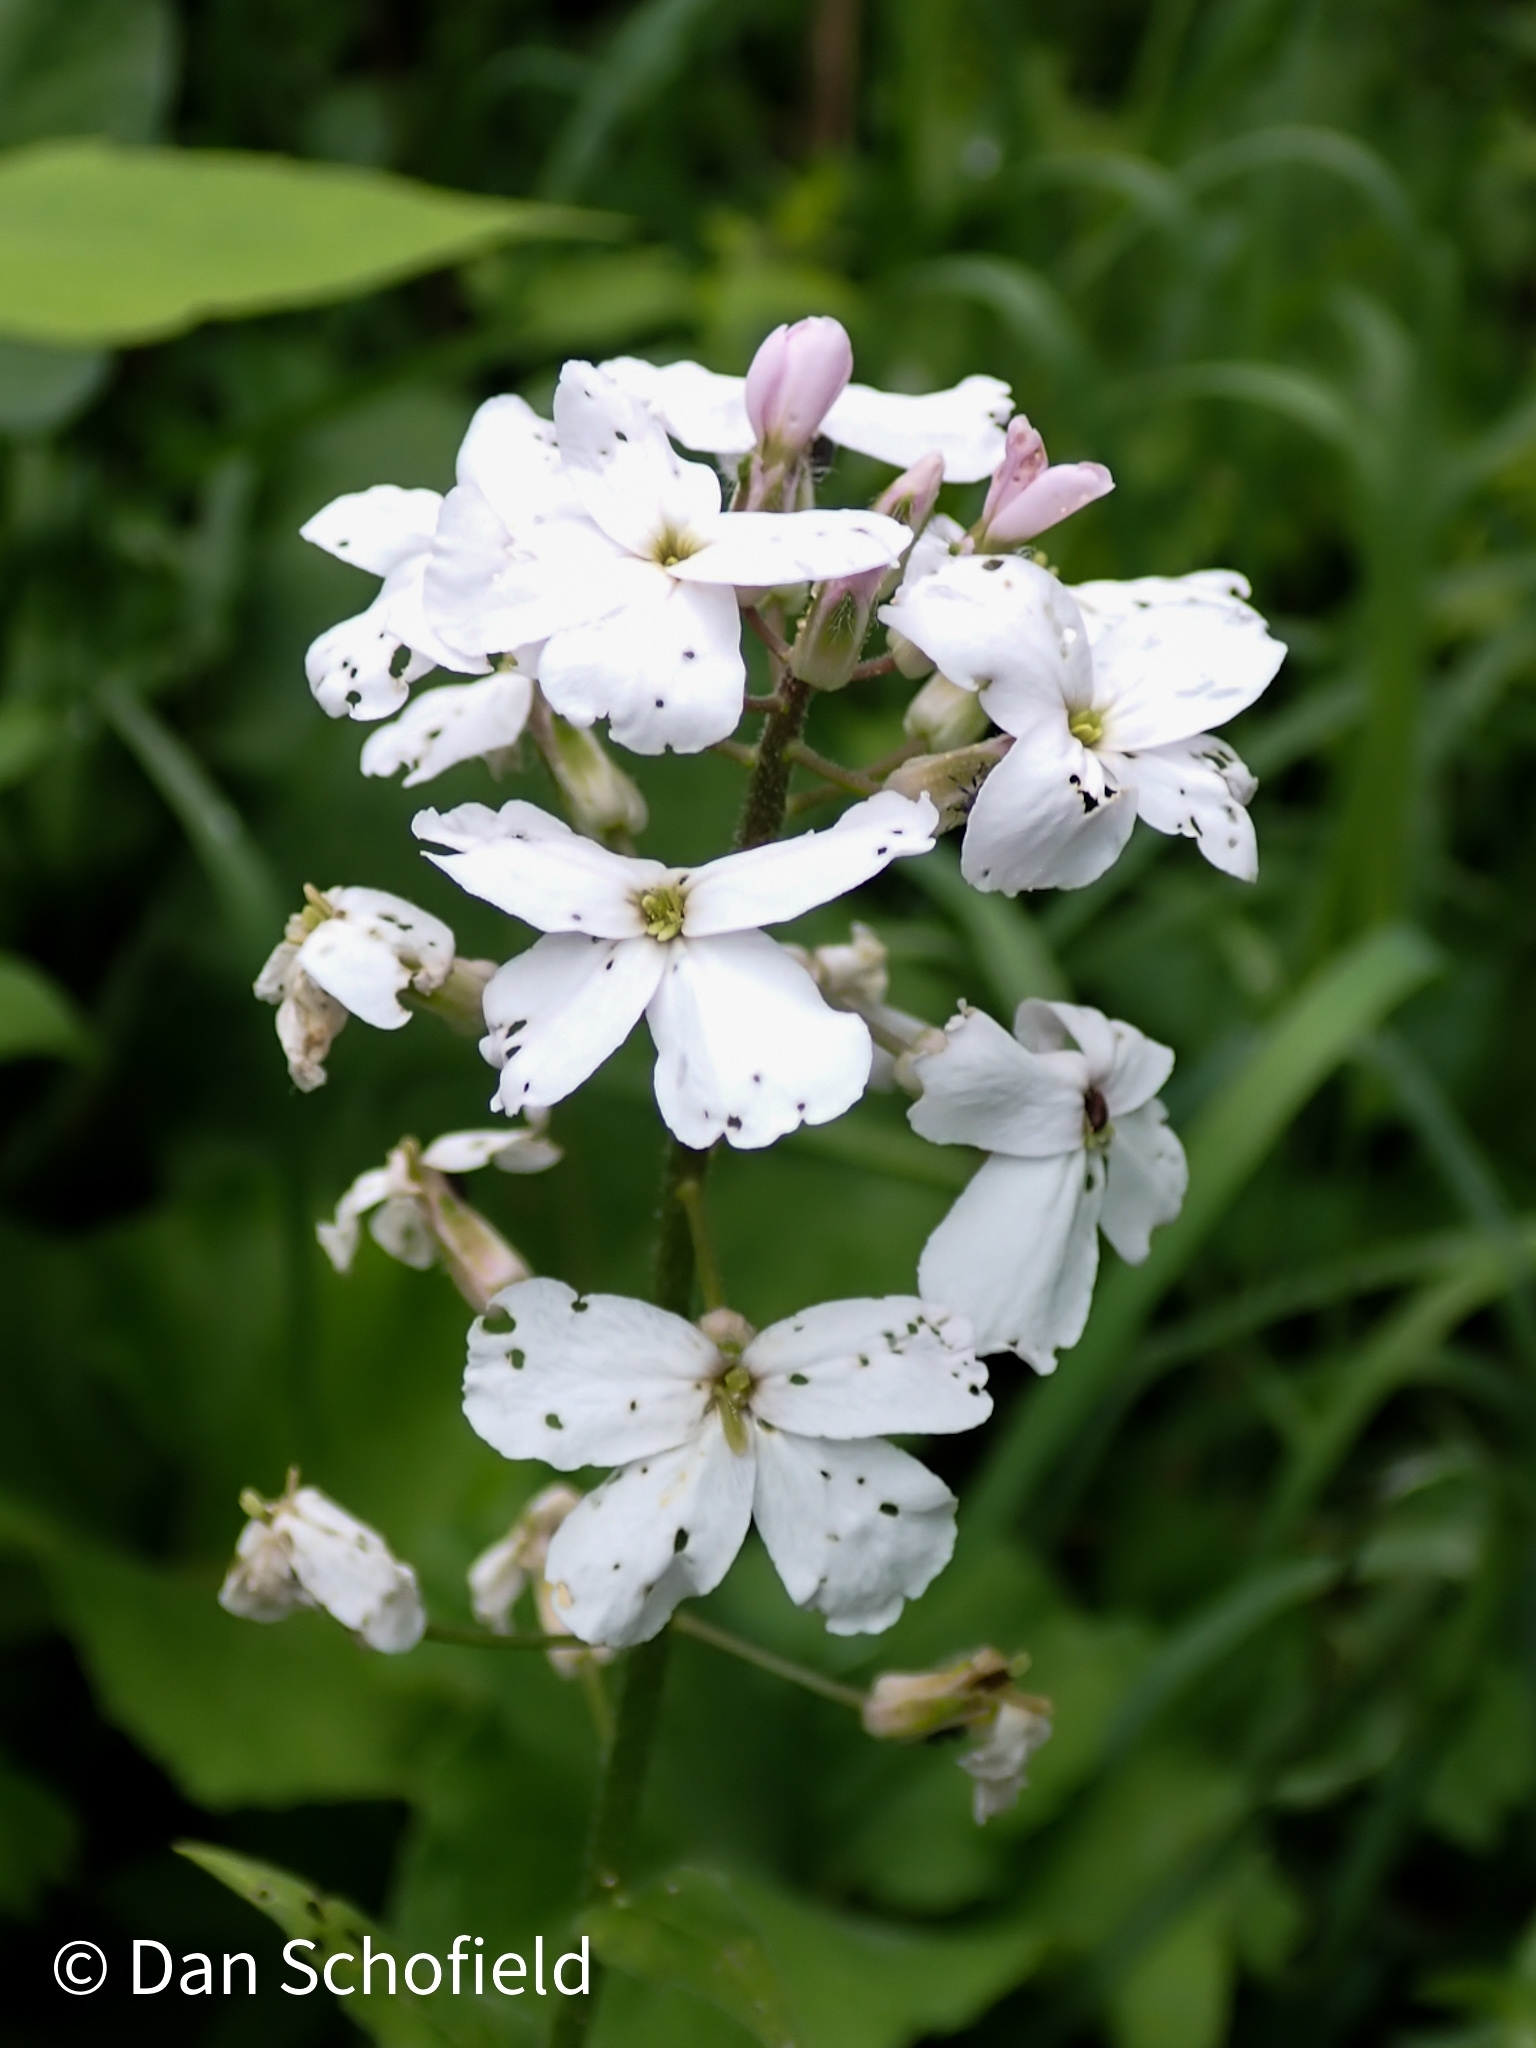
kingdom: Plantae
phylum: Tracheophyta
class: Magnoliopsida
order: Brassicales
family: Brassicaceae
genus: Hesperis
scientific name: Hesperis matronalis
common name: Dame's-violet
